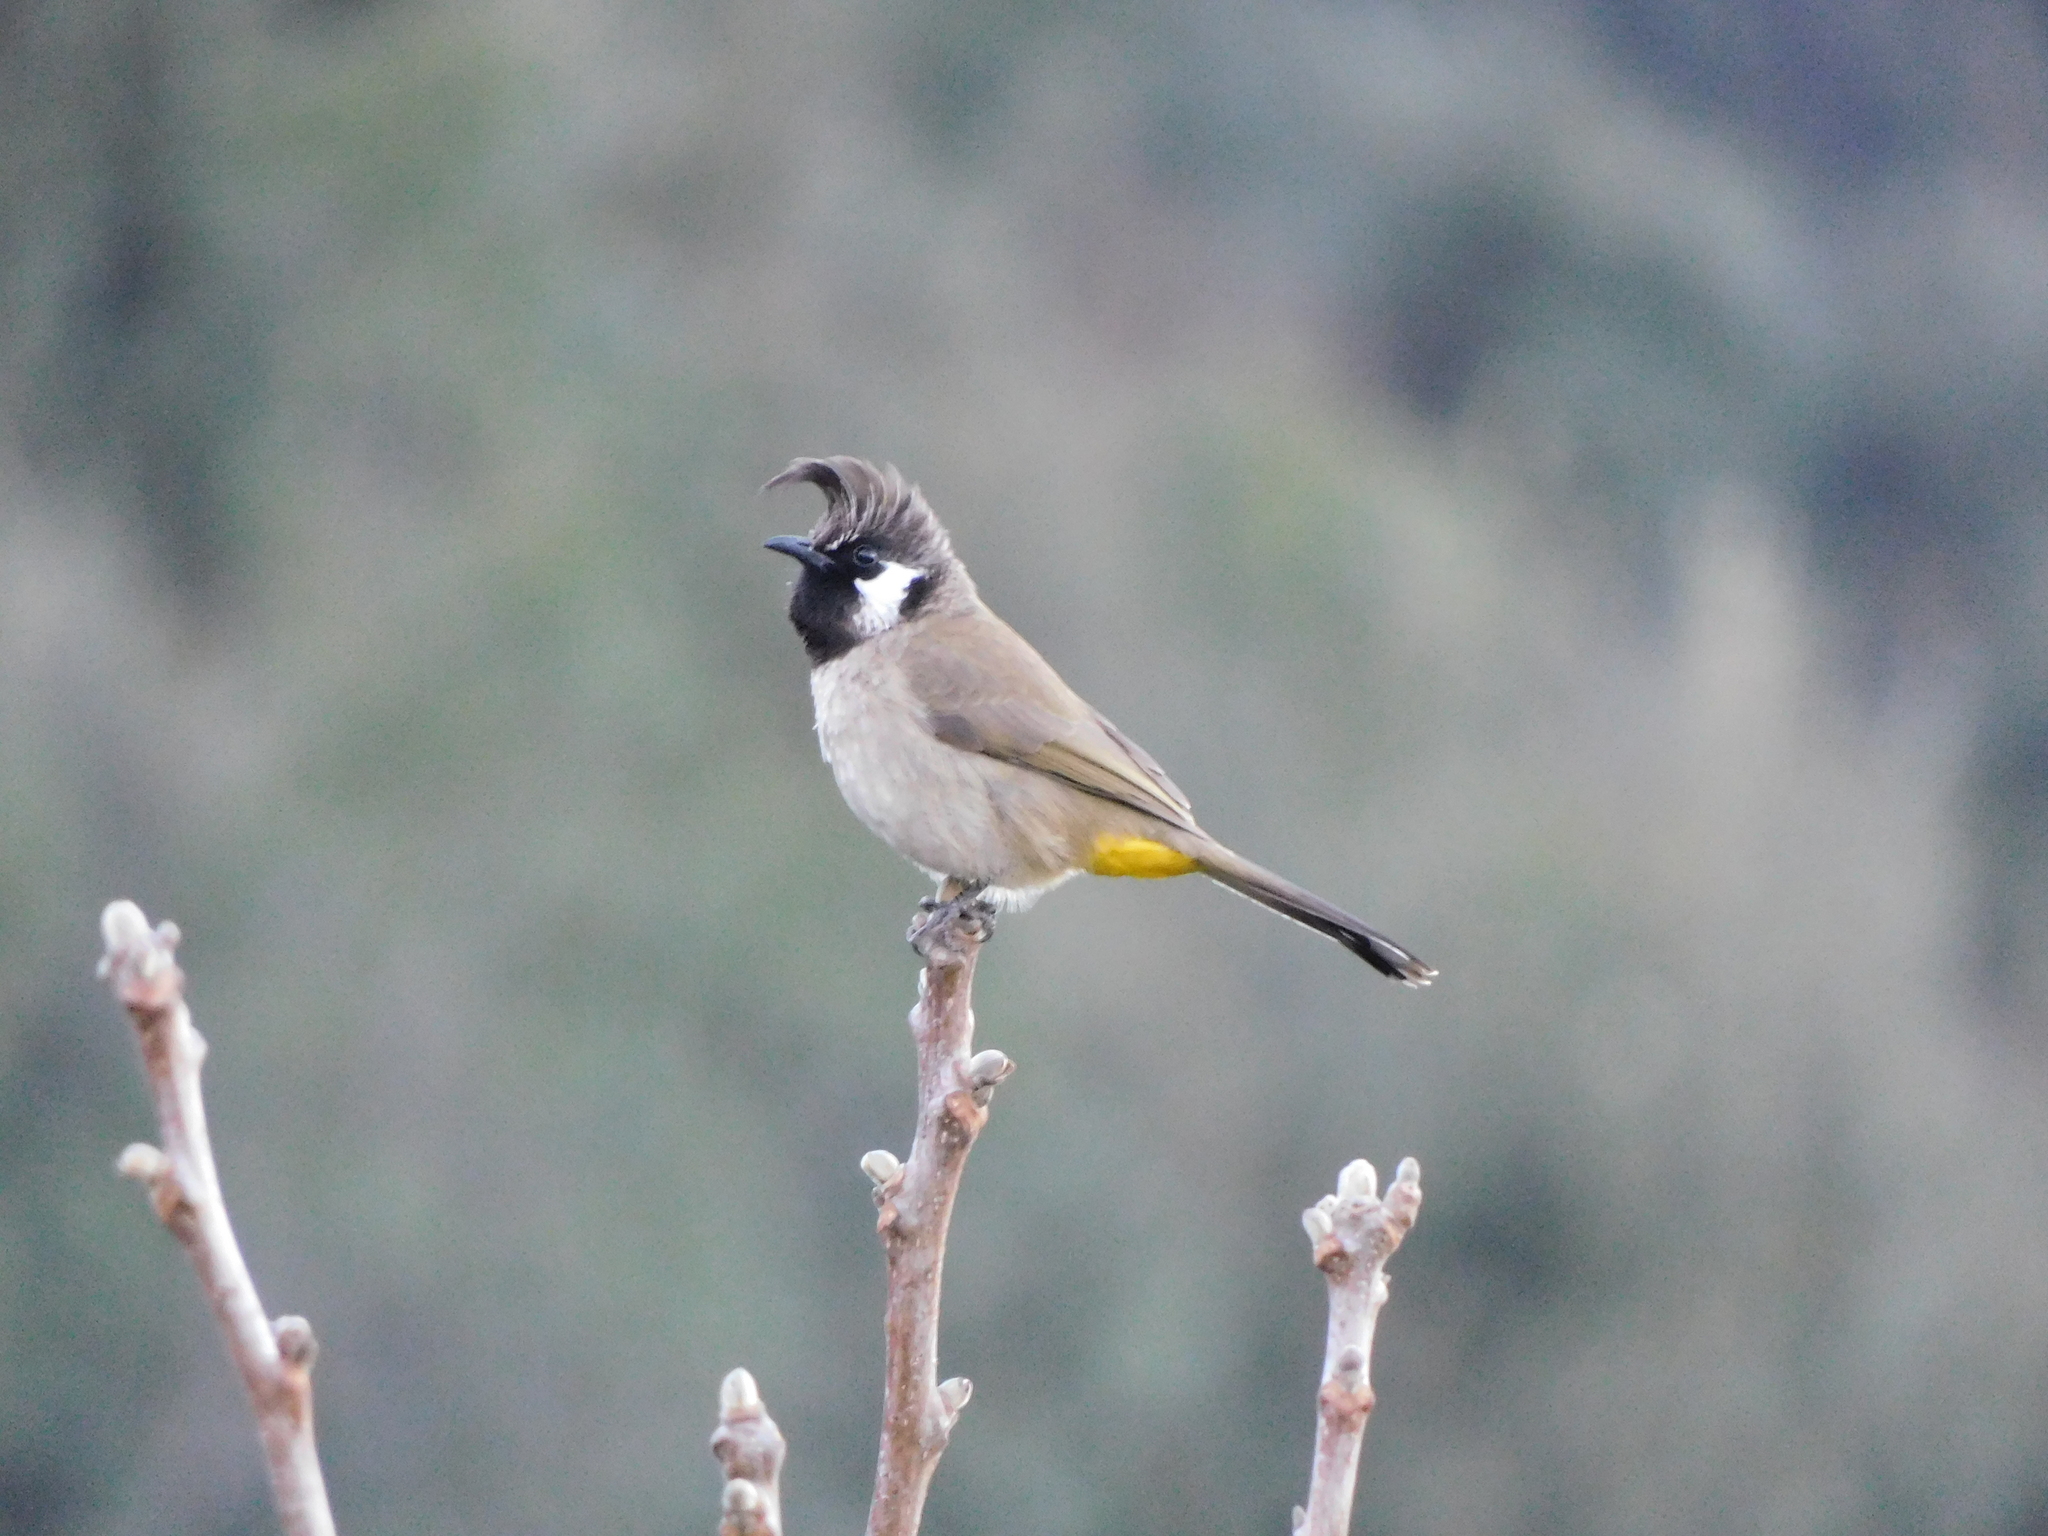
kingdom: Animalia
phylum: Chordata
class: Aves
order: Passeriformes
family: Pycnonotidae
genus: Pycnonotus
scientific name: Pycnonotus leucogenys
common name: Himalayan bulbul
